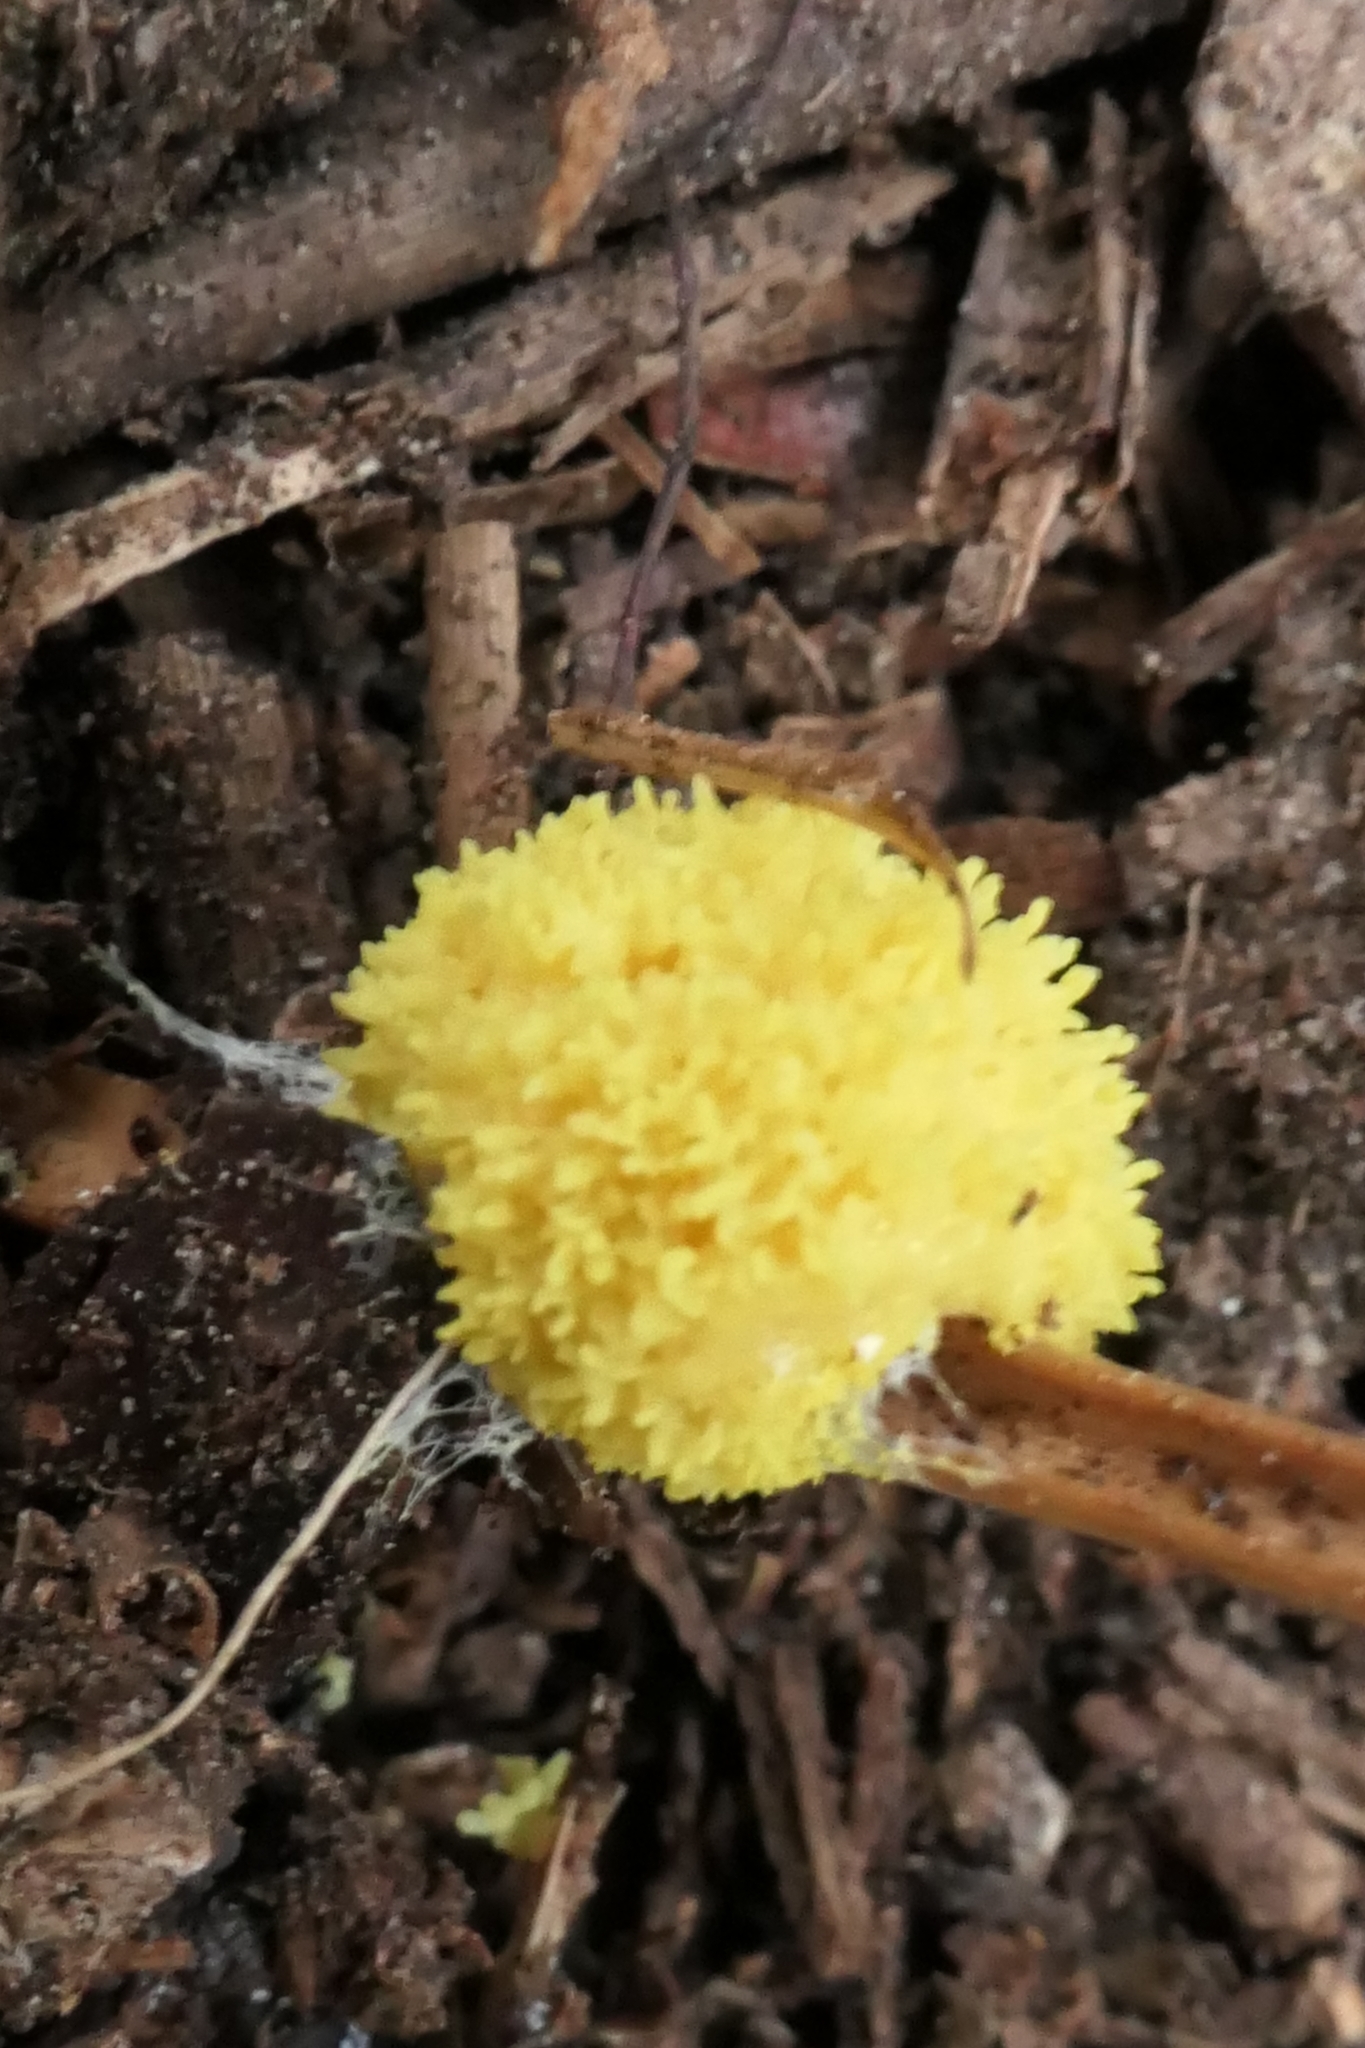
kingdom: Protozoa
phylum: Mycetozoa
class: Myxomycetes
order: Physarales
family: Physaraceae
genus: Fuligo
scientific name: Fuligo septica
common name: Dog vomit slime mold
